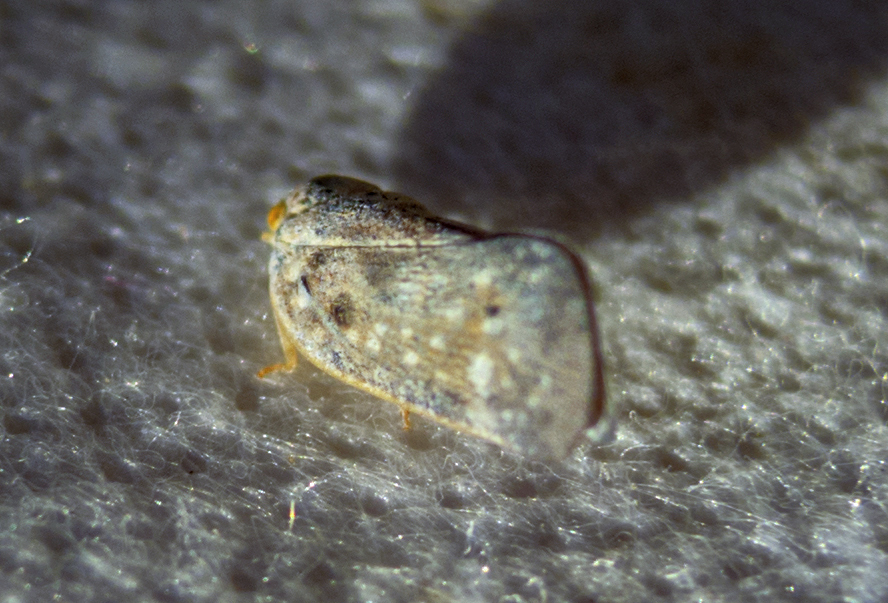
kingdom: Animalia
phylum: Arthropoda
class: Insecta
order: Hemiptera
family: Flatidae
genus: Metcalfa
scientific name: Metcalfa pruinosa
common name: Citrus flatid planthopper
